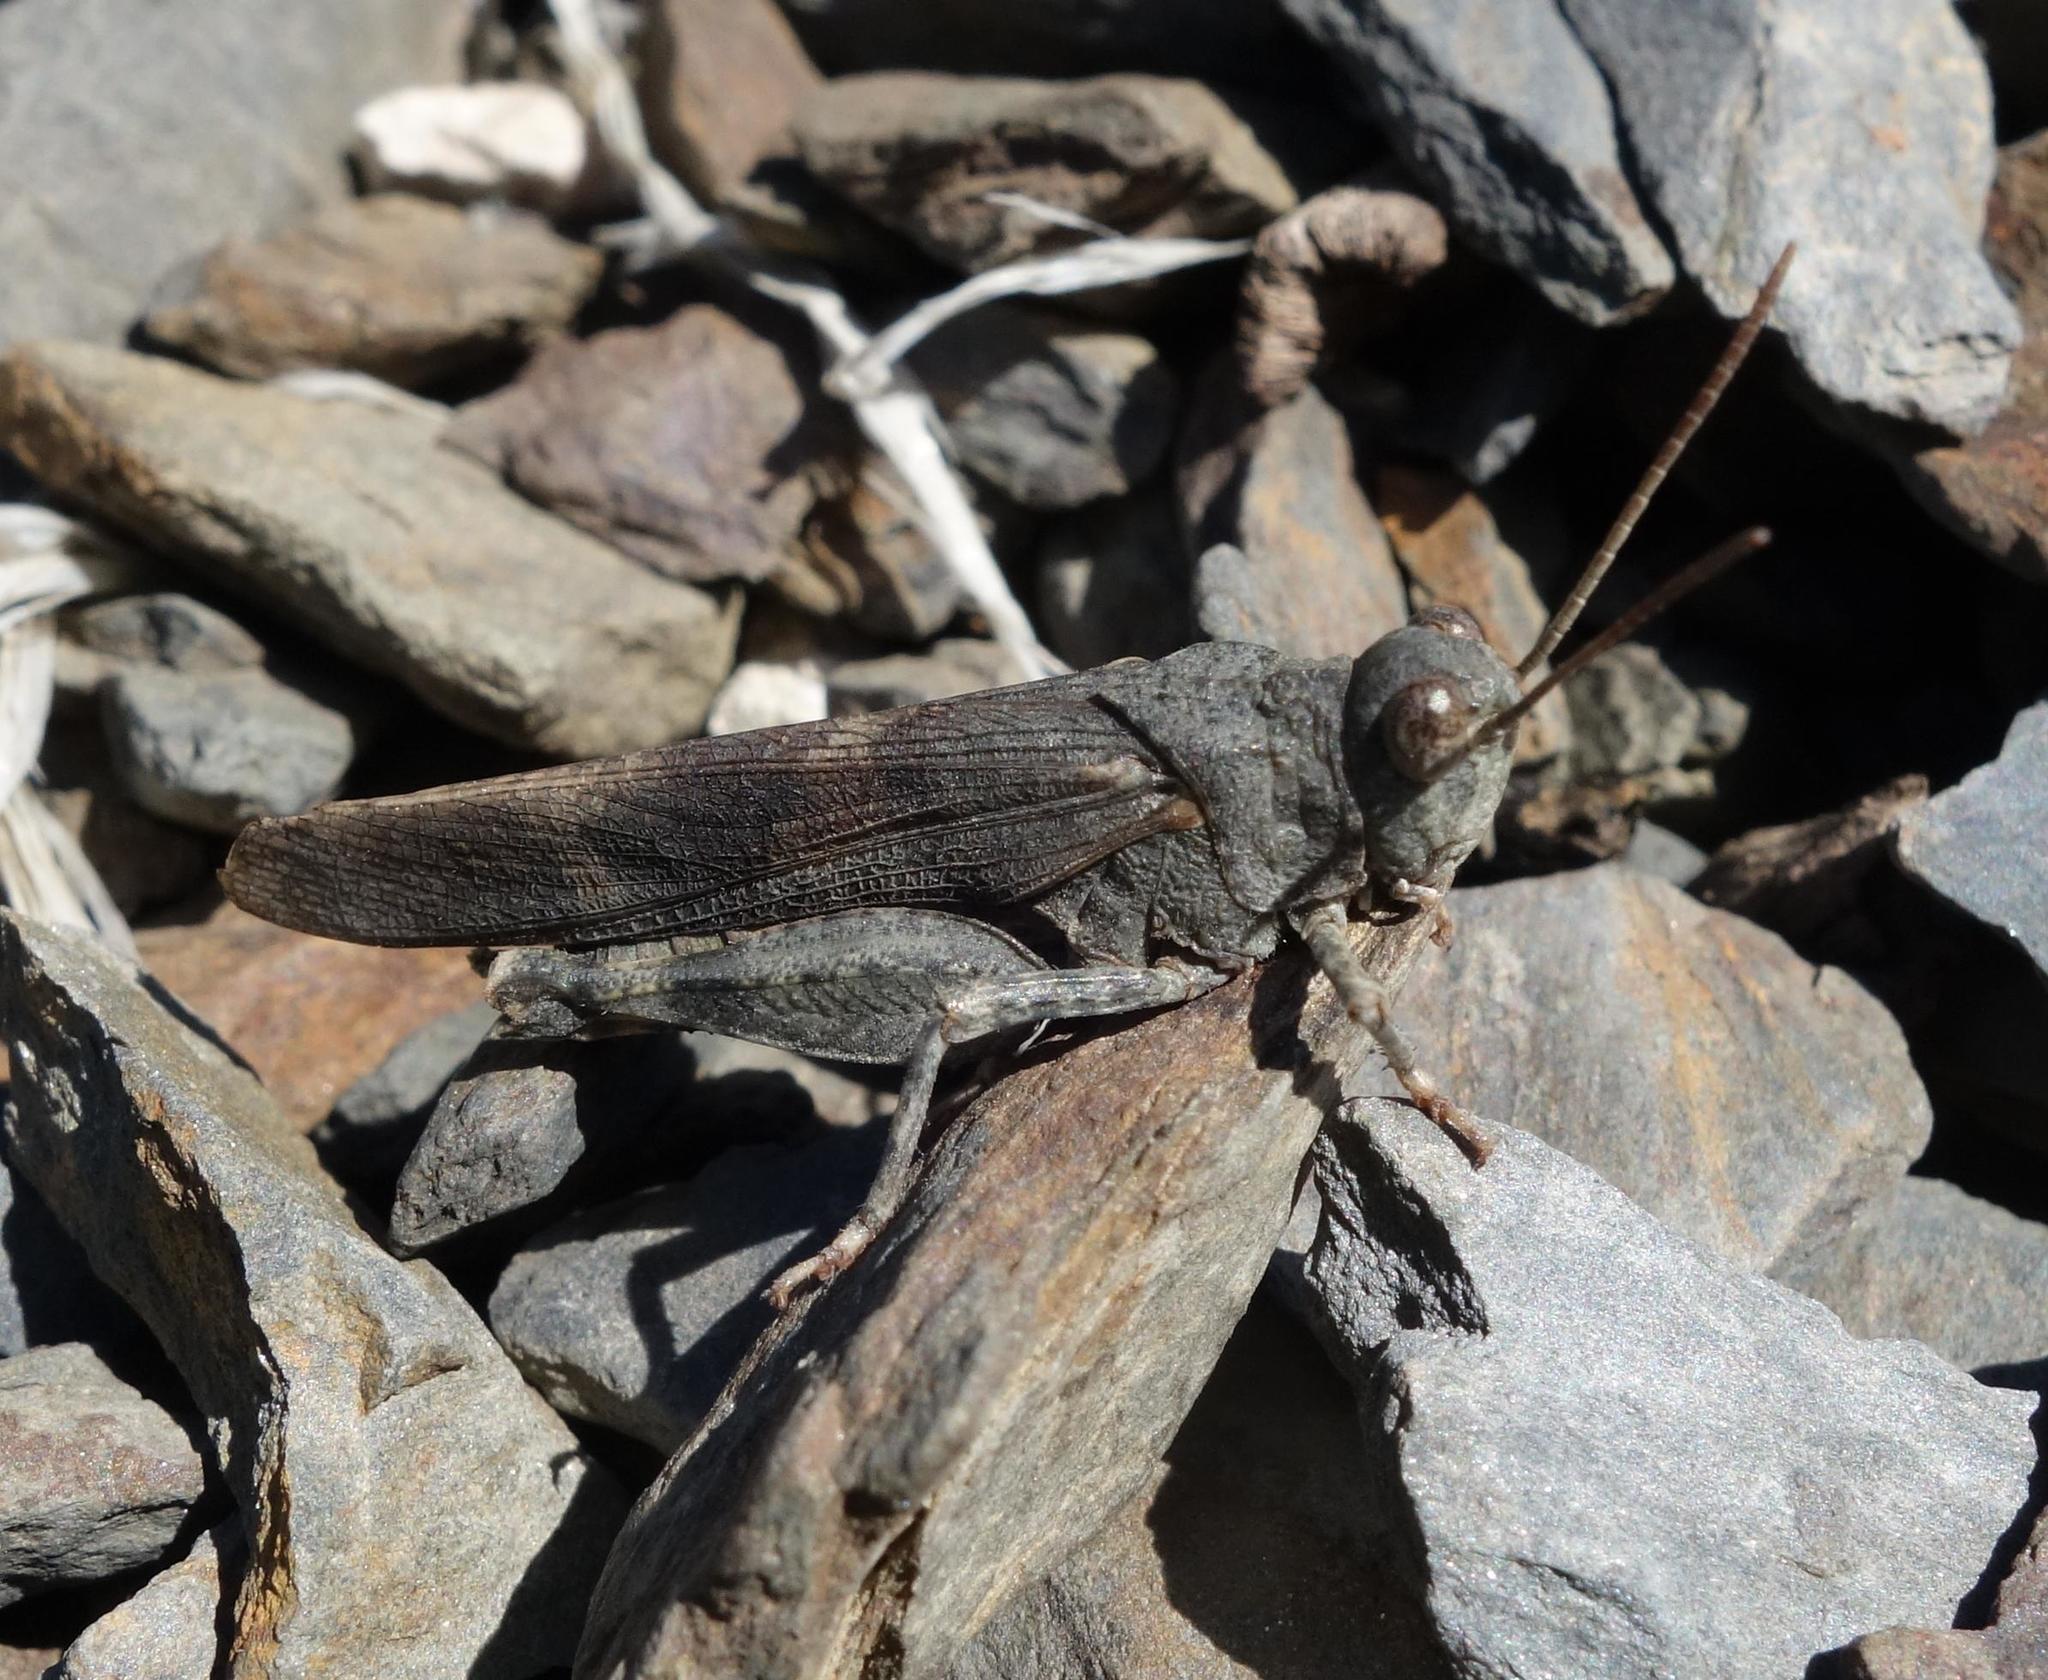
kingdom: Animalia
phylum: Arthropoda
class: Insecta
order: Orthoptera
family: Acrididae
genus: Oedipoda
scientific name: Oedipoda germanica
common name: Red band-winged grasshopper
